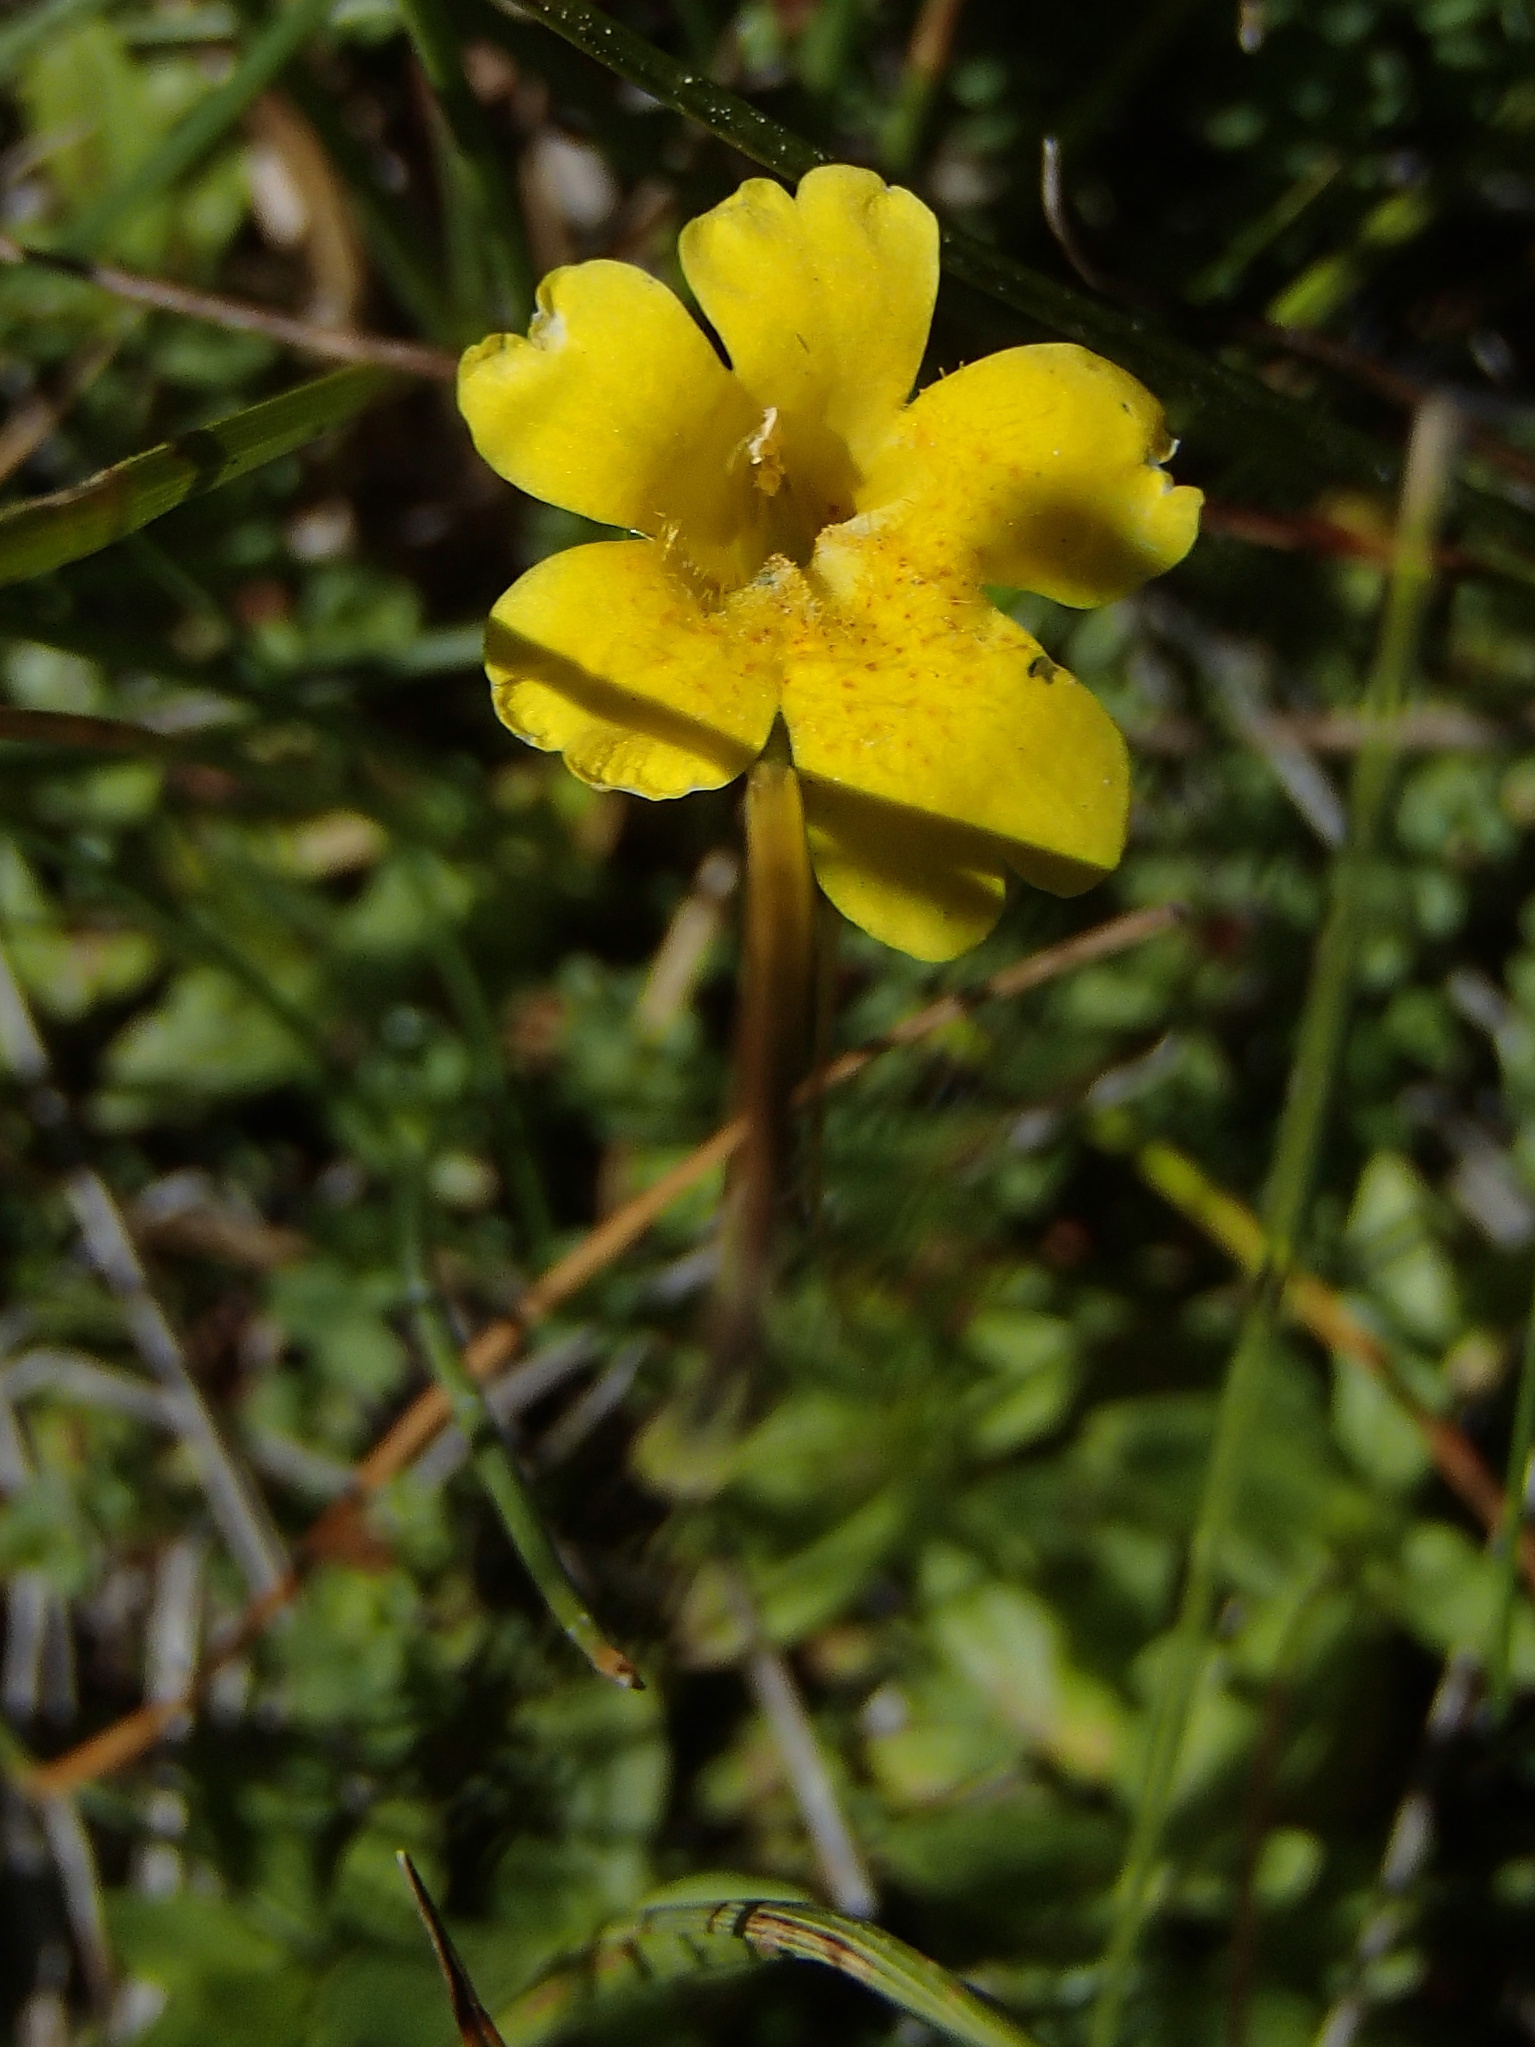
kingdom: Plantae
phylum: Tracheophyta
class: Magnoliopsida
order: Lamiales
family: Phrymaceae
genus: Erythranthe
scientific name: Erythranthe primuloides
